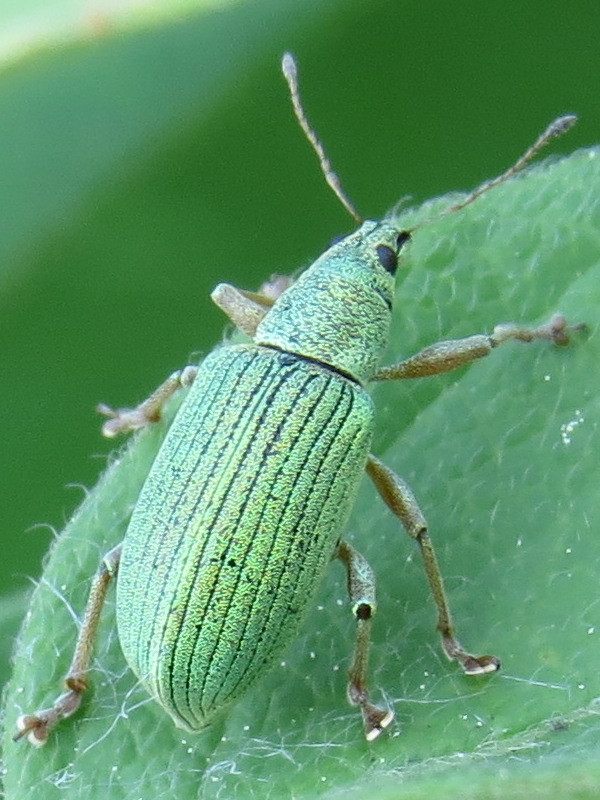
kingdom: Animalia
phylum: Arthropoda
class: Insecta
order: Coleoptera
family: Curculionidae
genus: Polydrusus
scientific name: Polydrusus formosus
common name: Weevil
